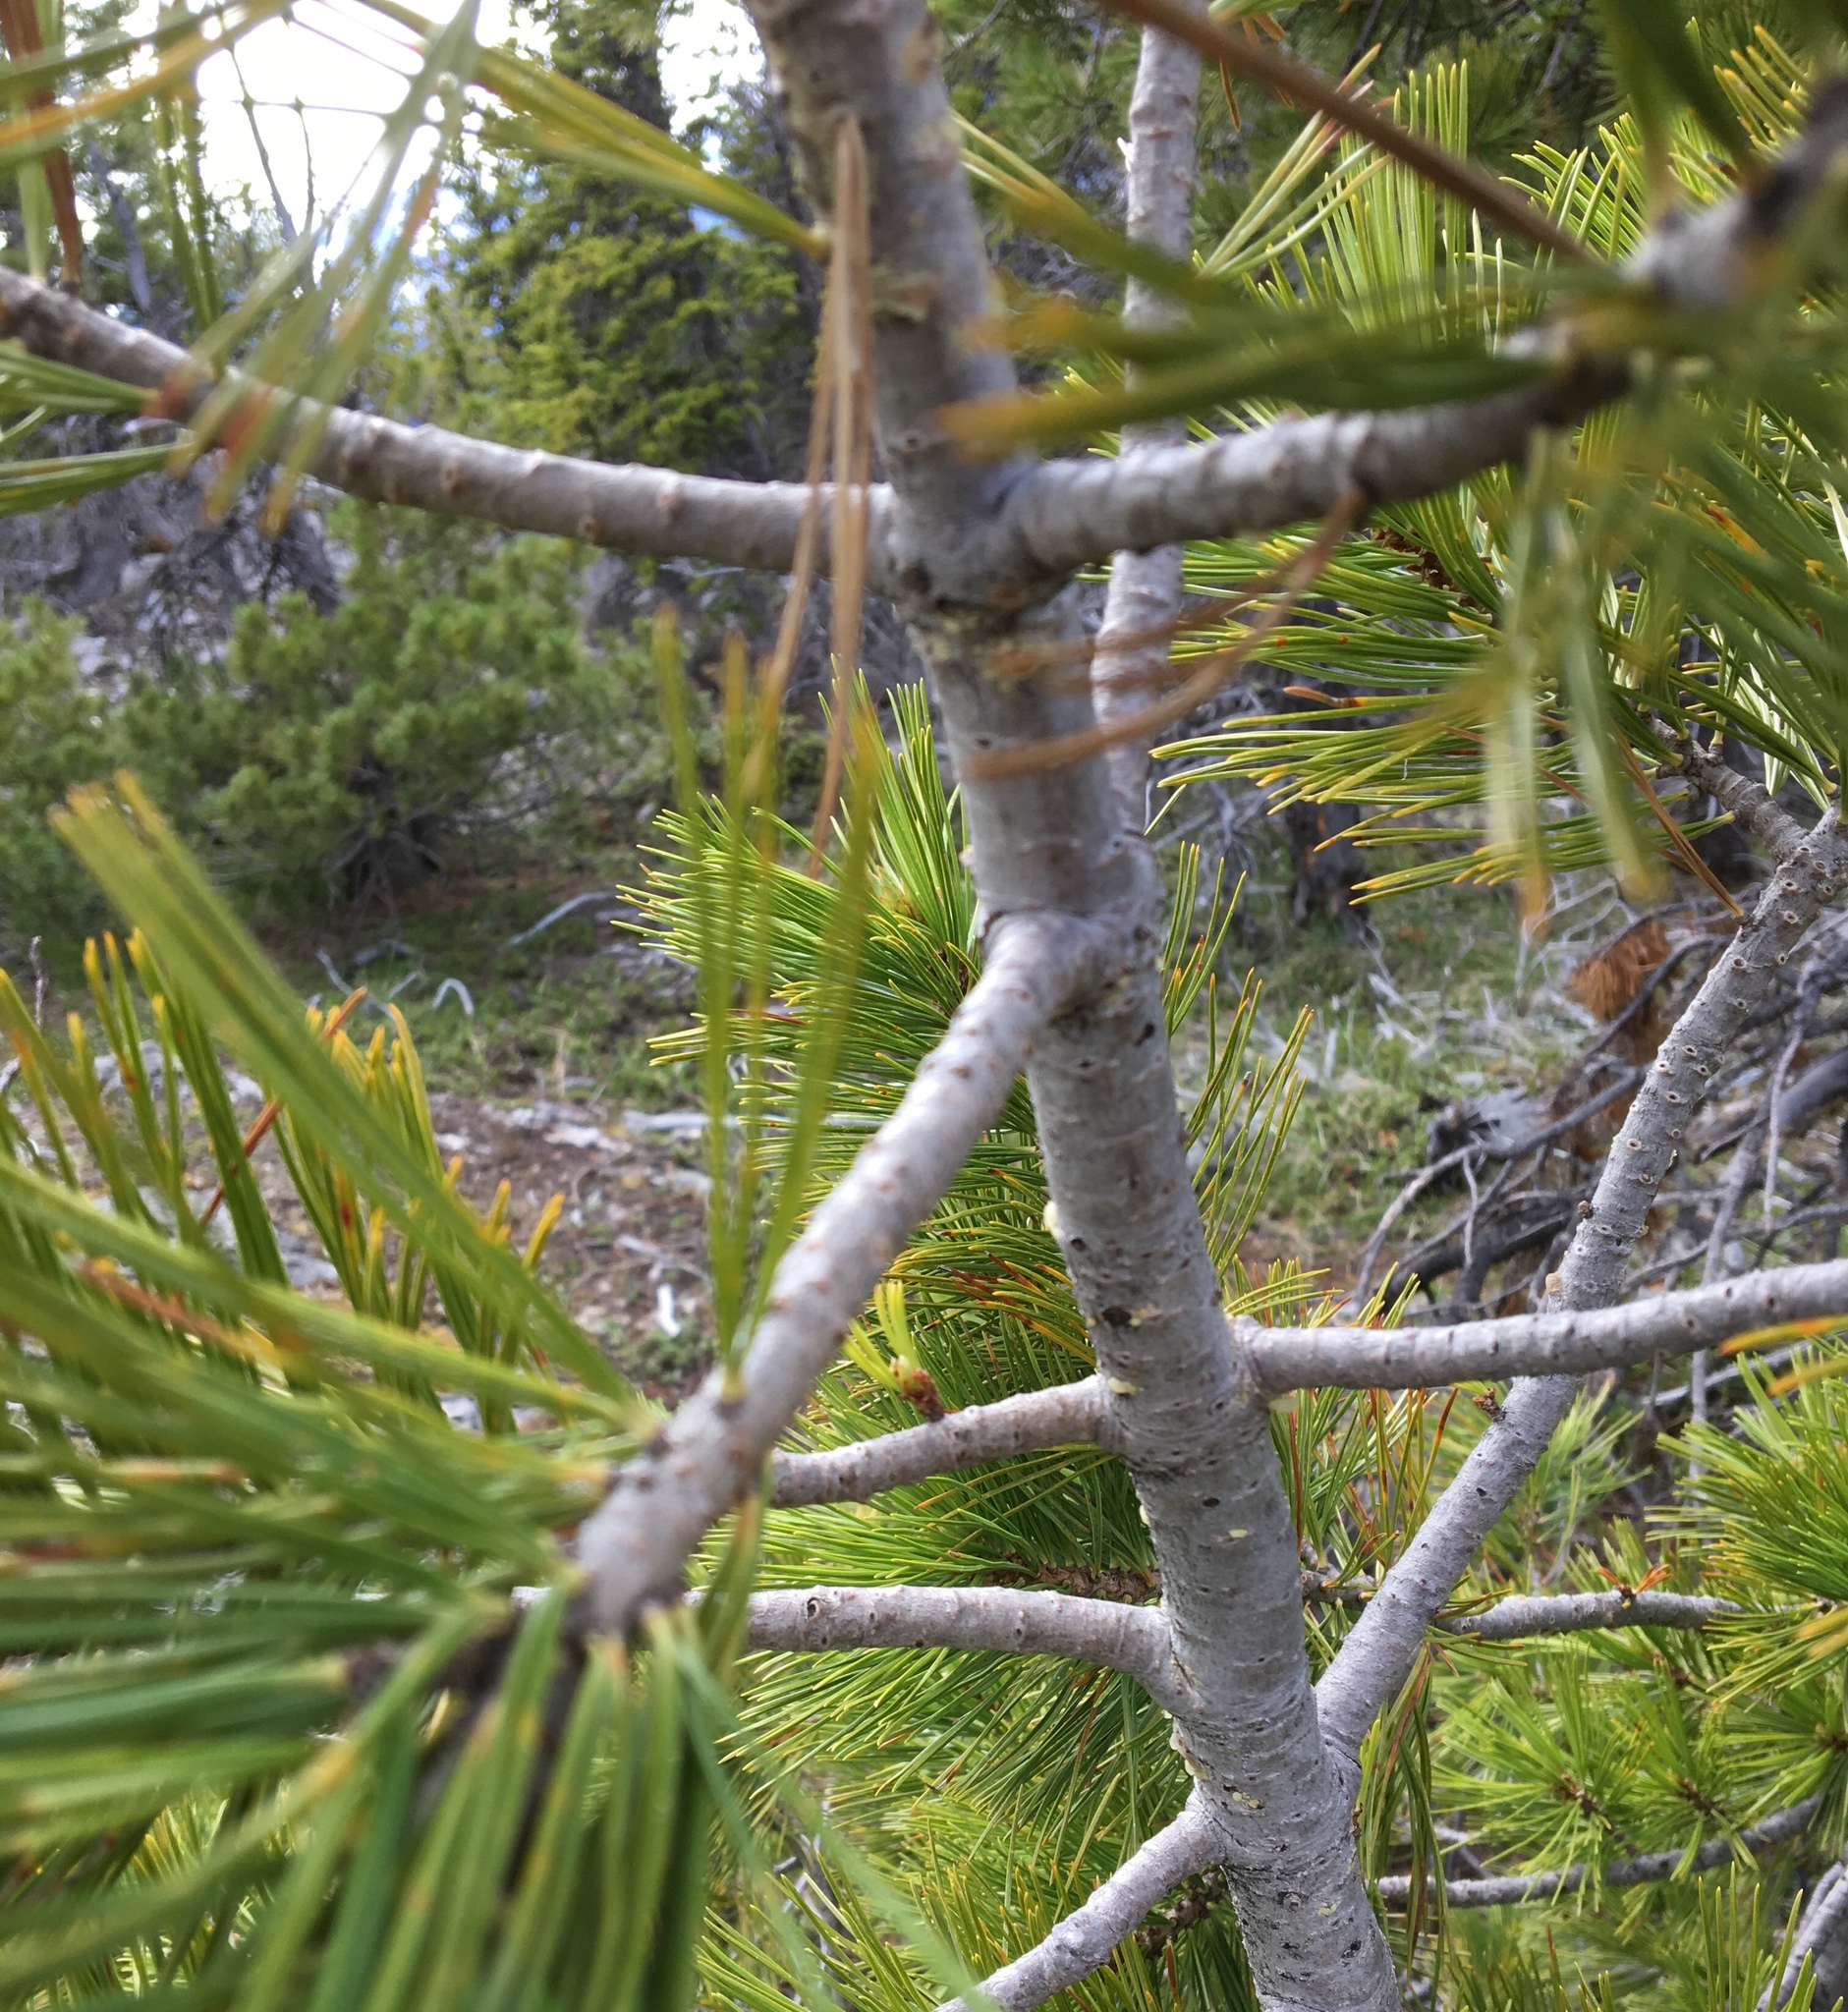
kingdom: Plantae
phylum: Tracheophyta
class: Pinopsida
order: Pinales
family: Pinaceae
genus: Pinus
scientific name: Pinus albicaulis
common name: Whitebark pine
